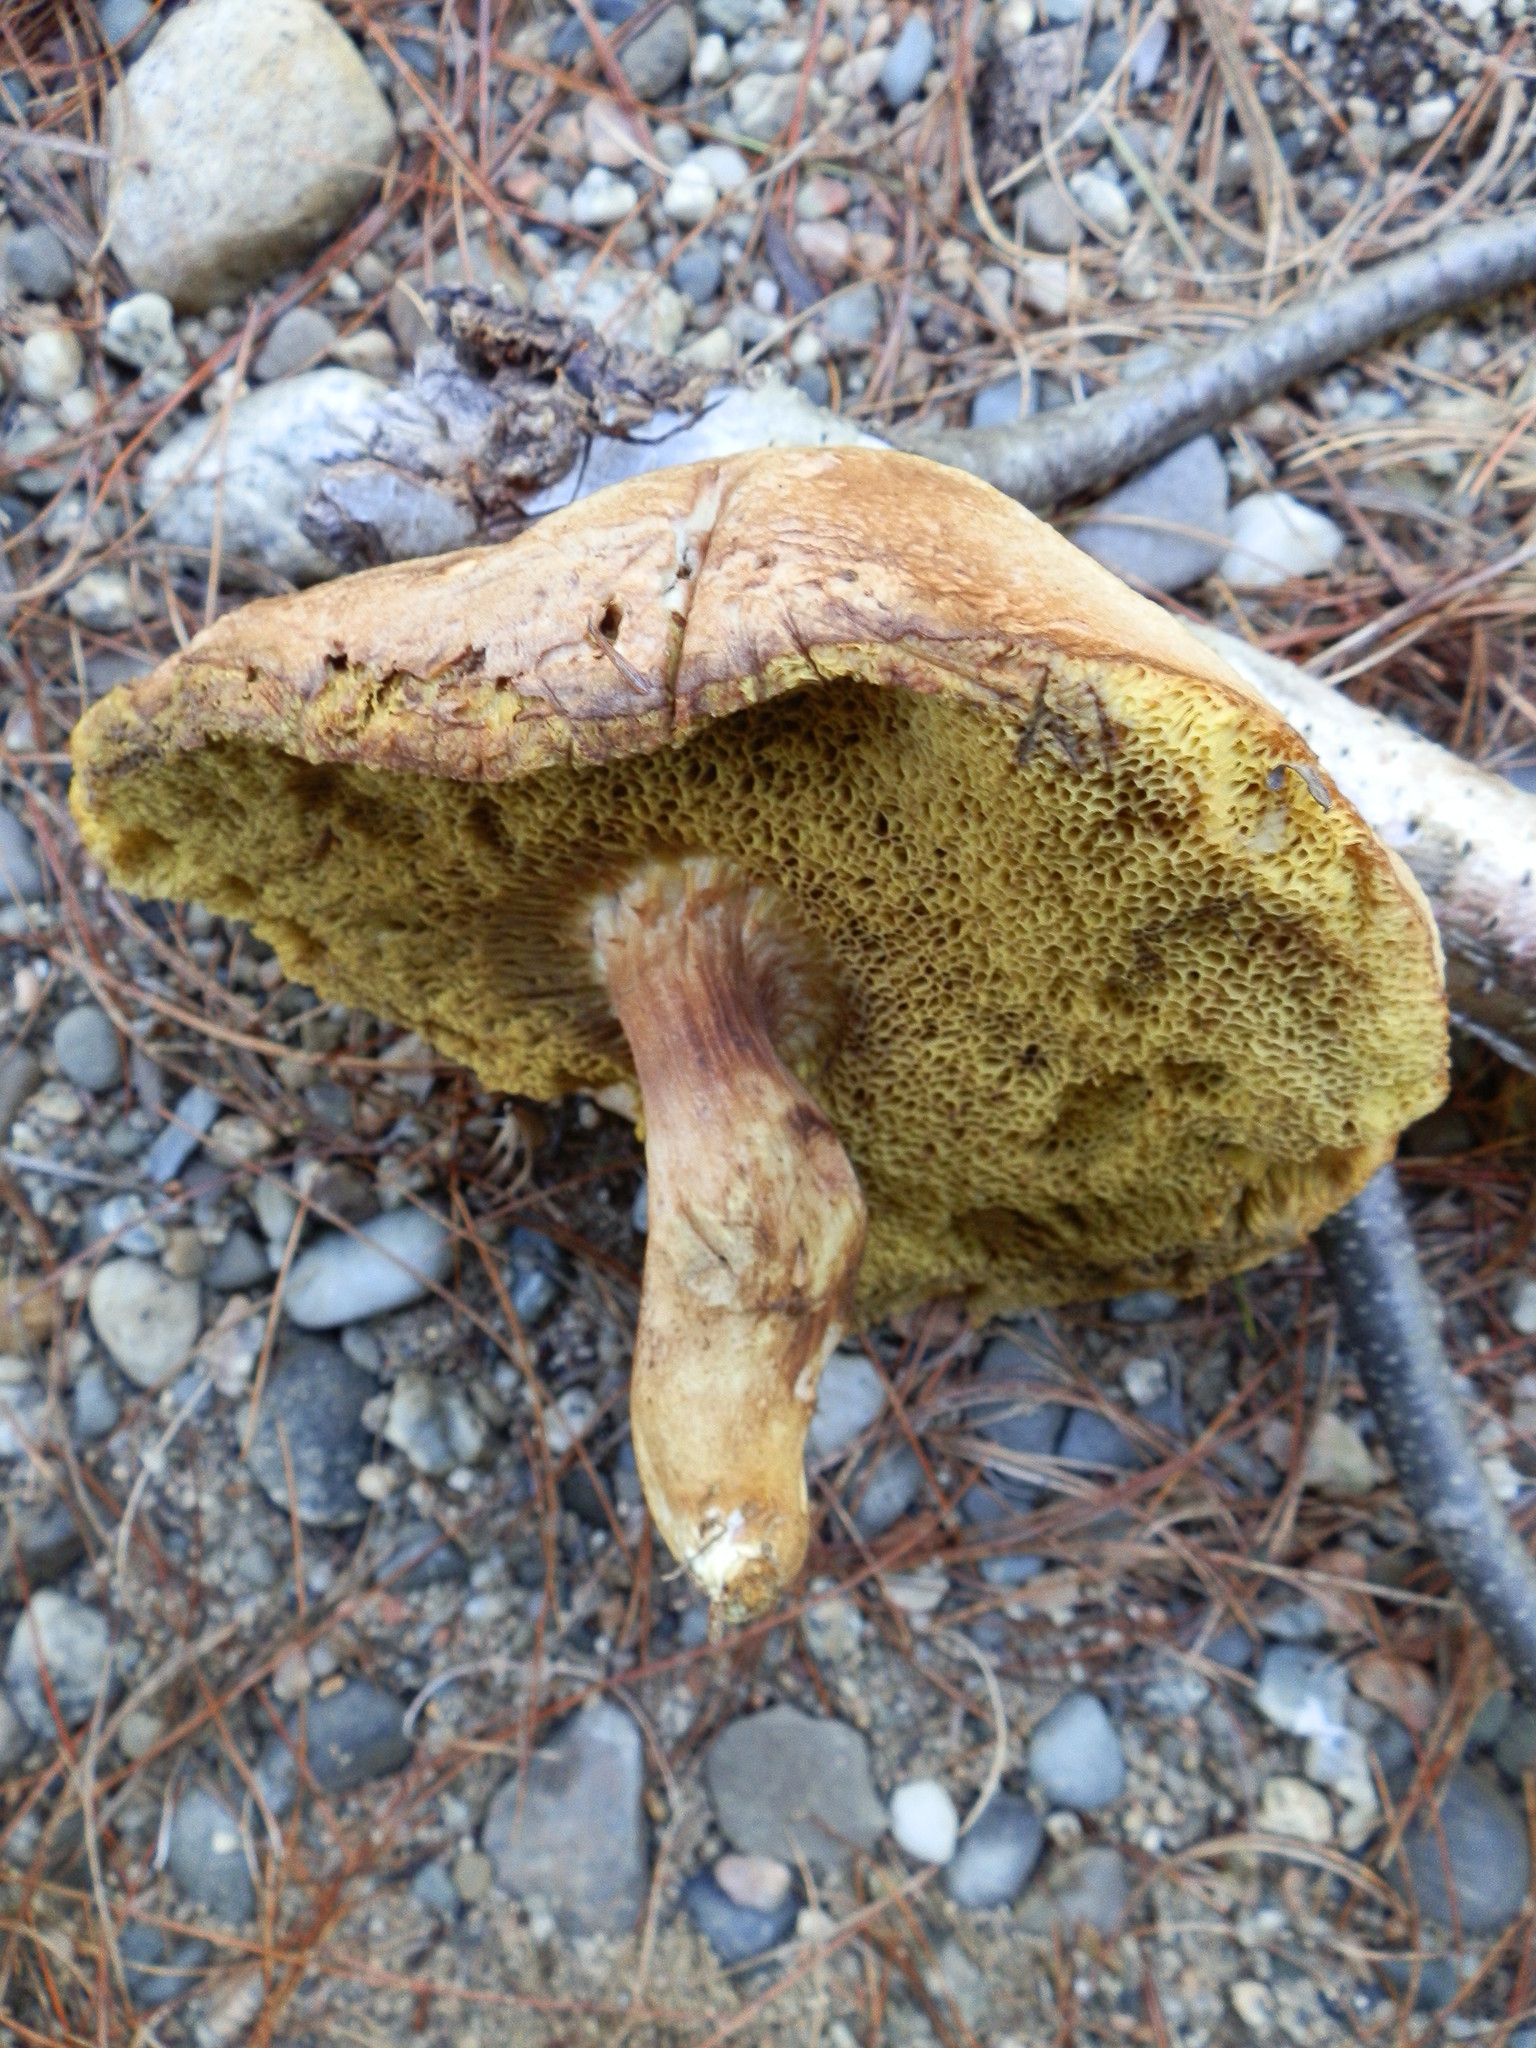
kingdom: Fungi
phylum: Basidiomycota
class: Agaricomycetes
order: Boletales
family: Boletaceae
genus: Xerocomus
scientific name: Xerocomus subtomentosus
